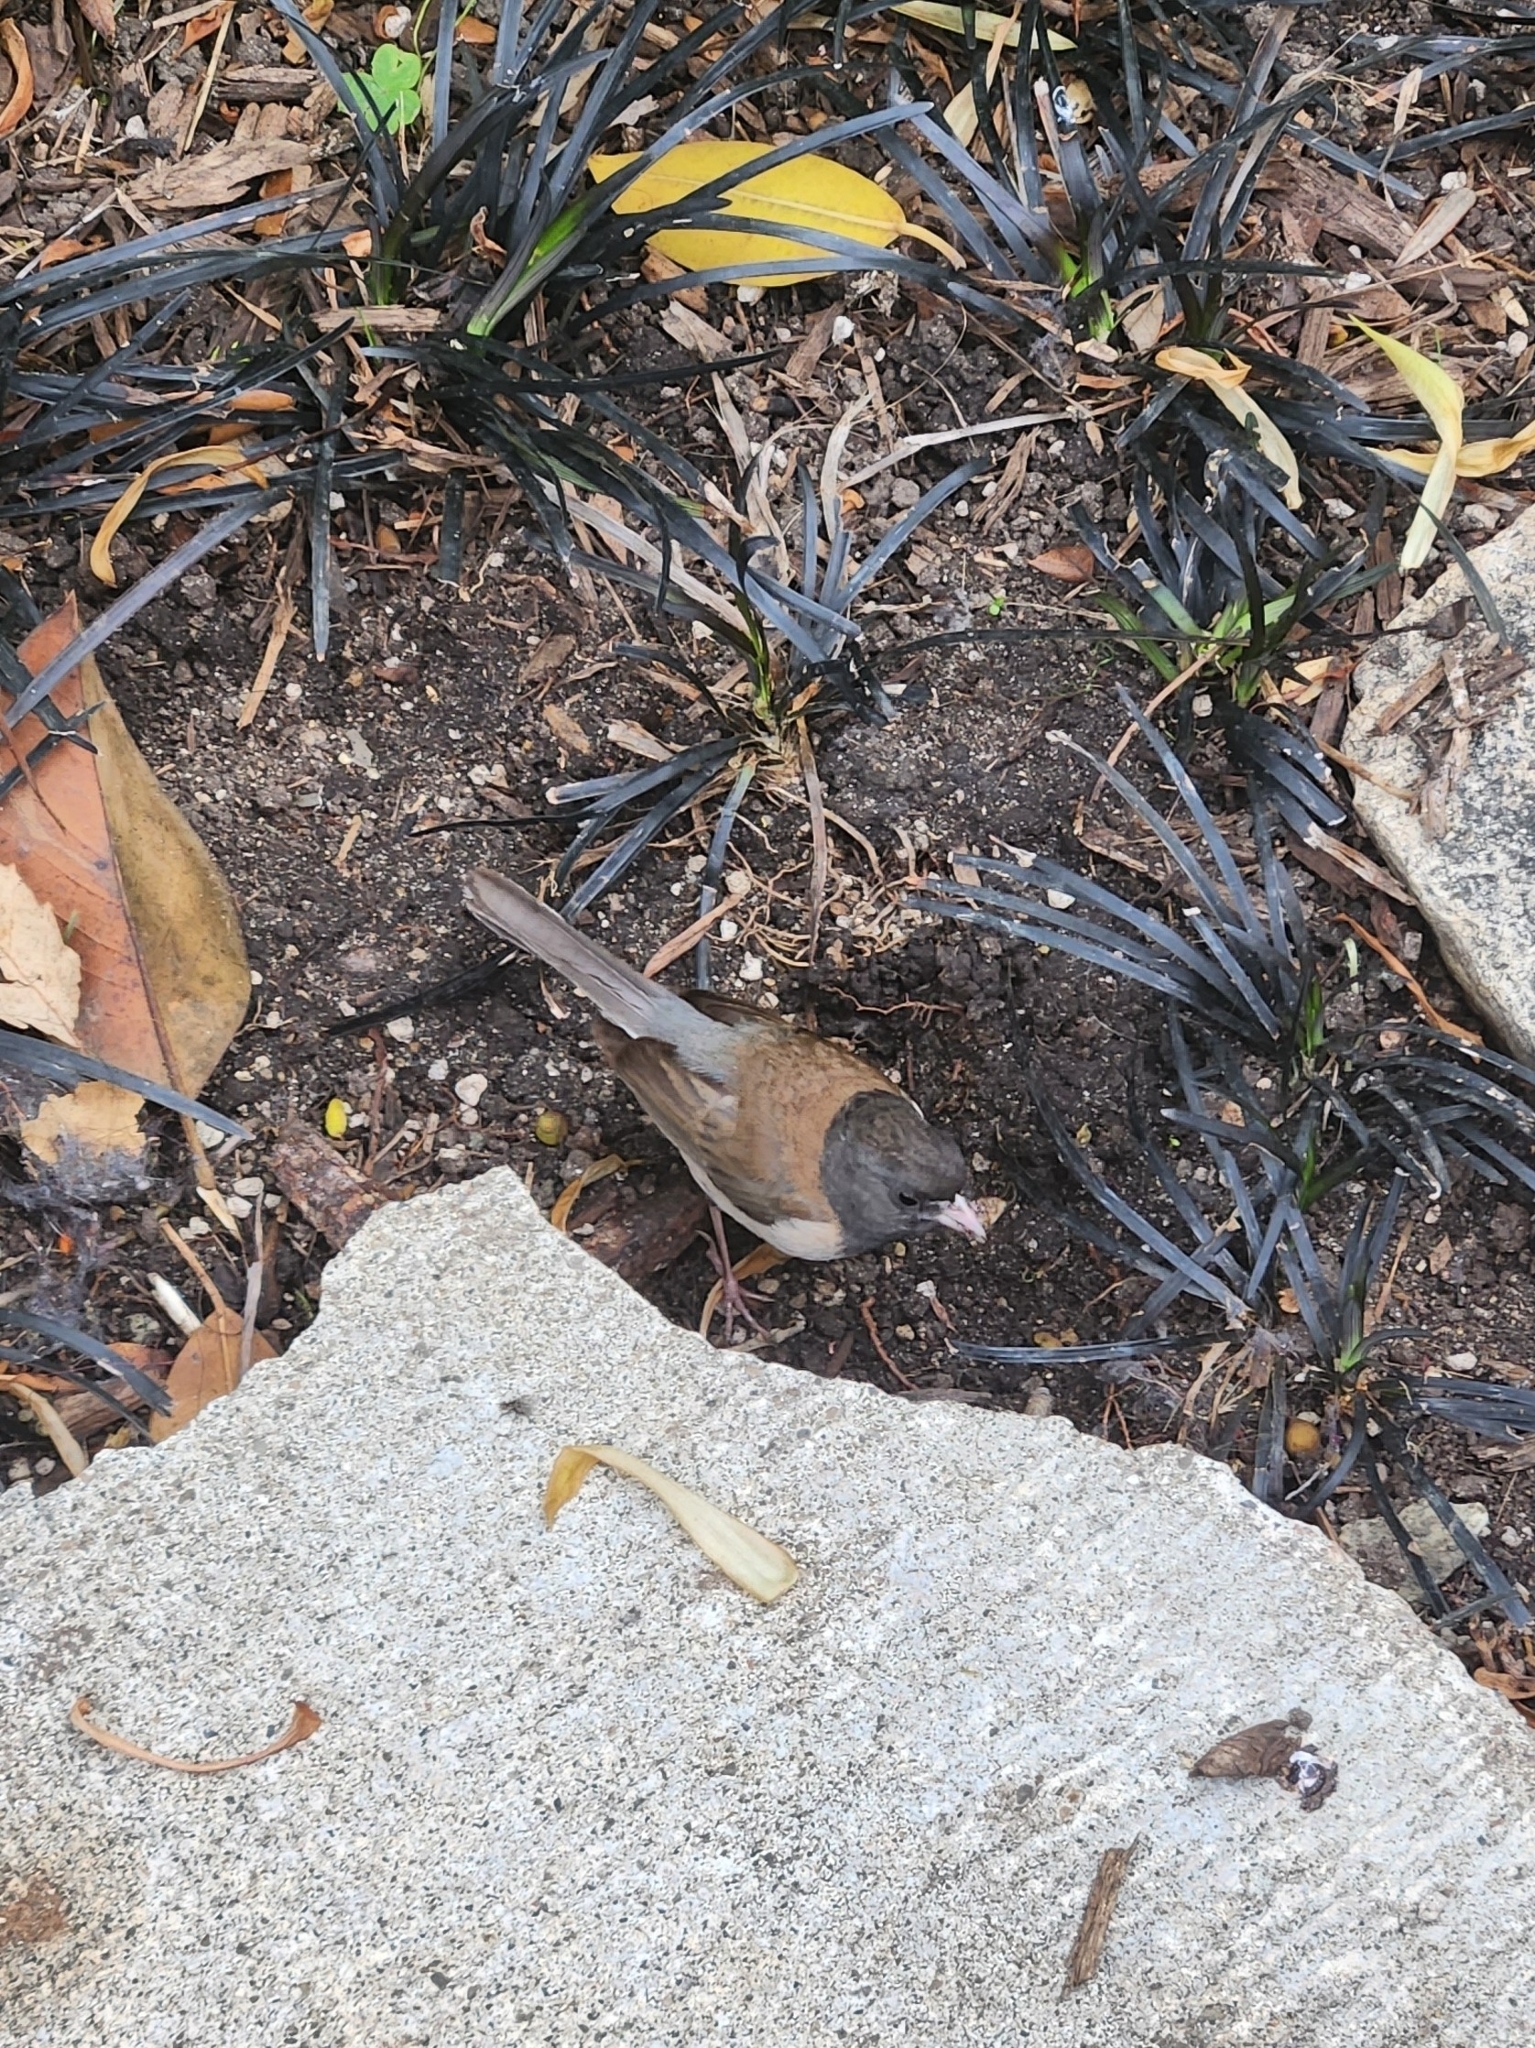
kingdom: Animalia
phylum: Chordata
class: Aves
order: Passeriformes
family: Passerellidae
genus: Junco
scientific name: Junco hyemalis
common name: Dark-eyed junco
